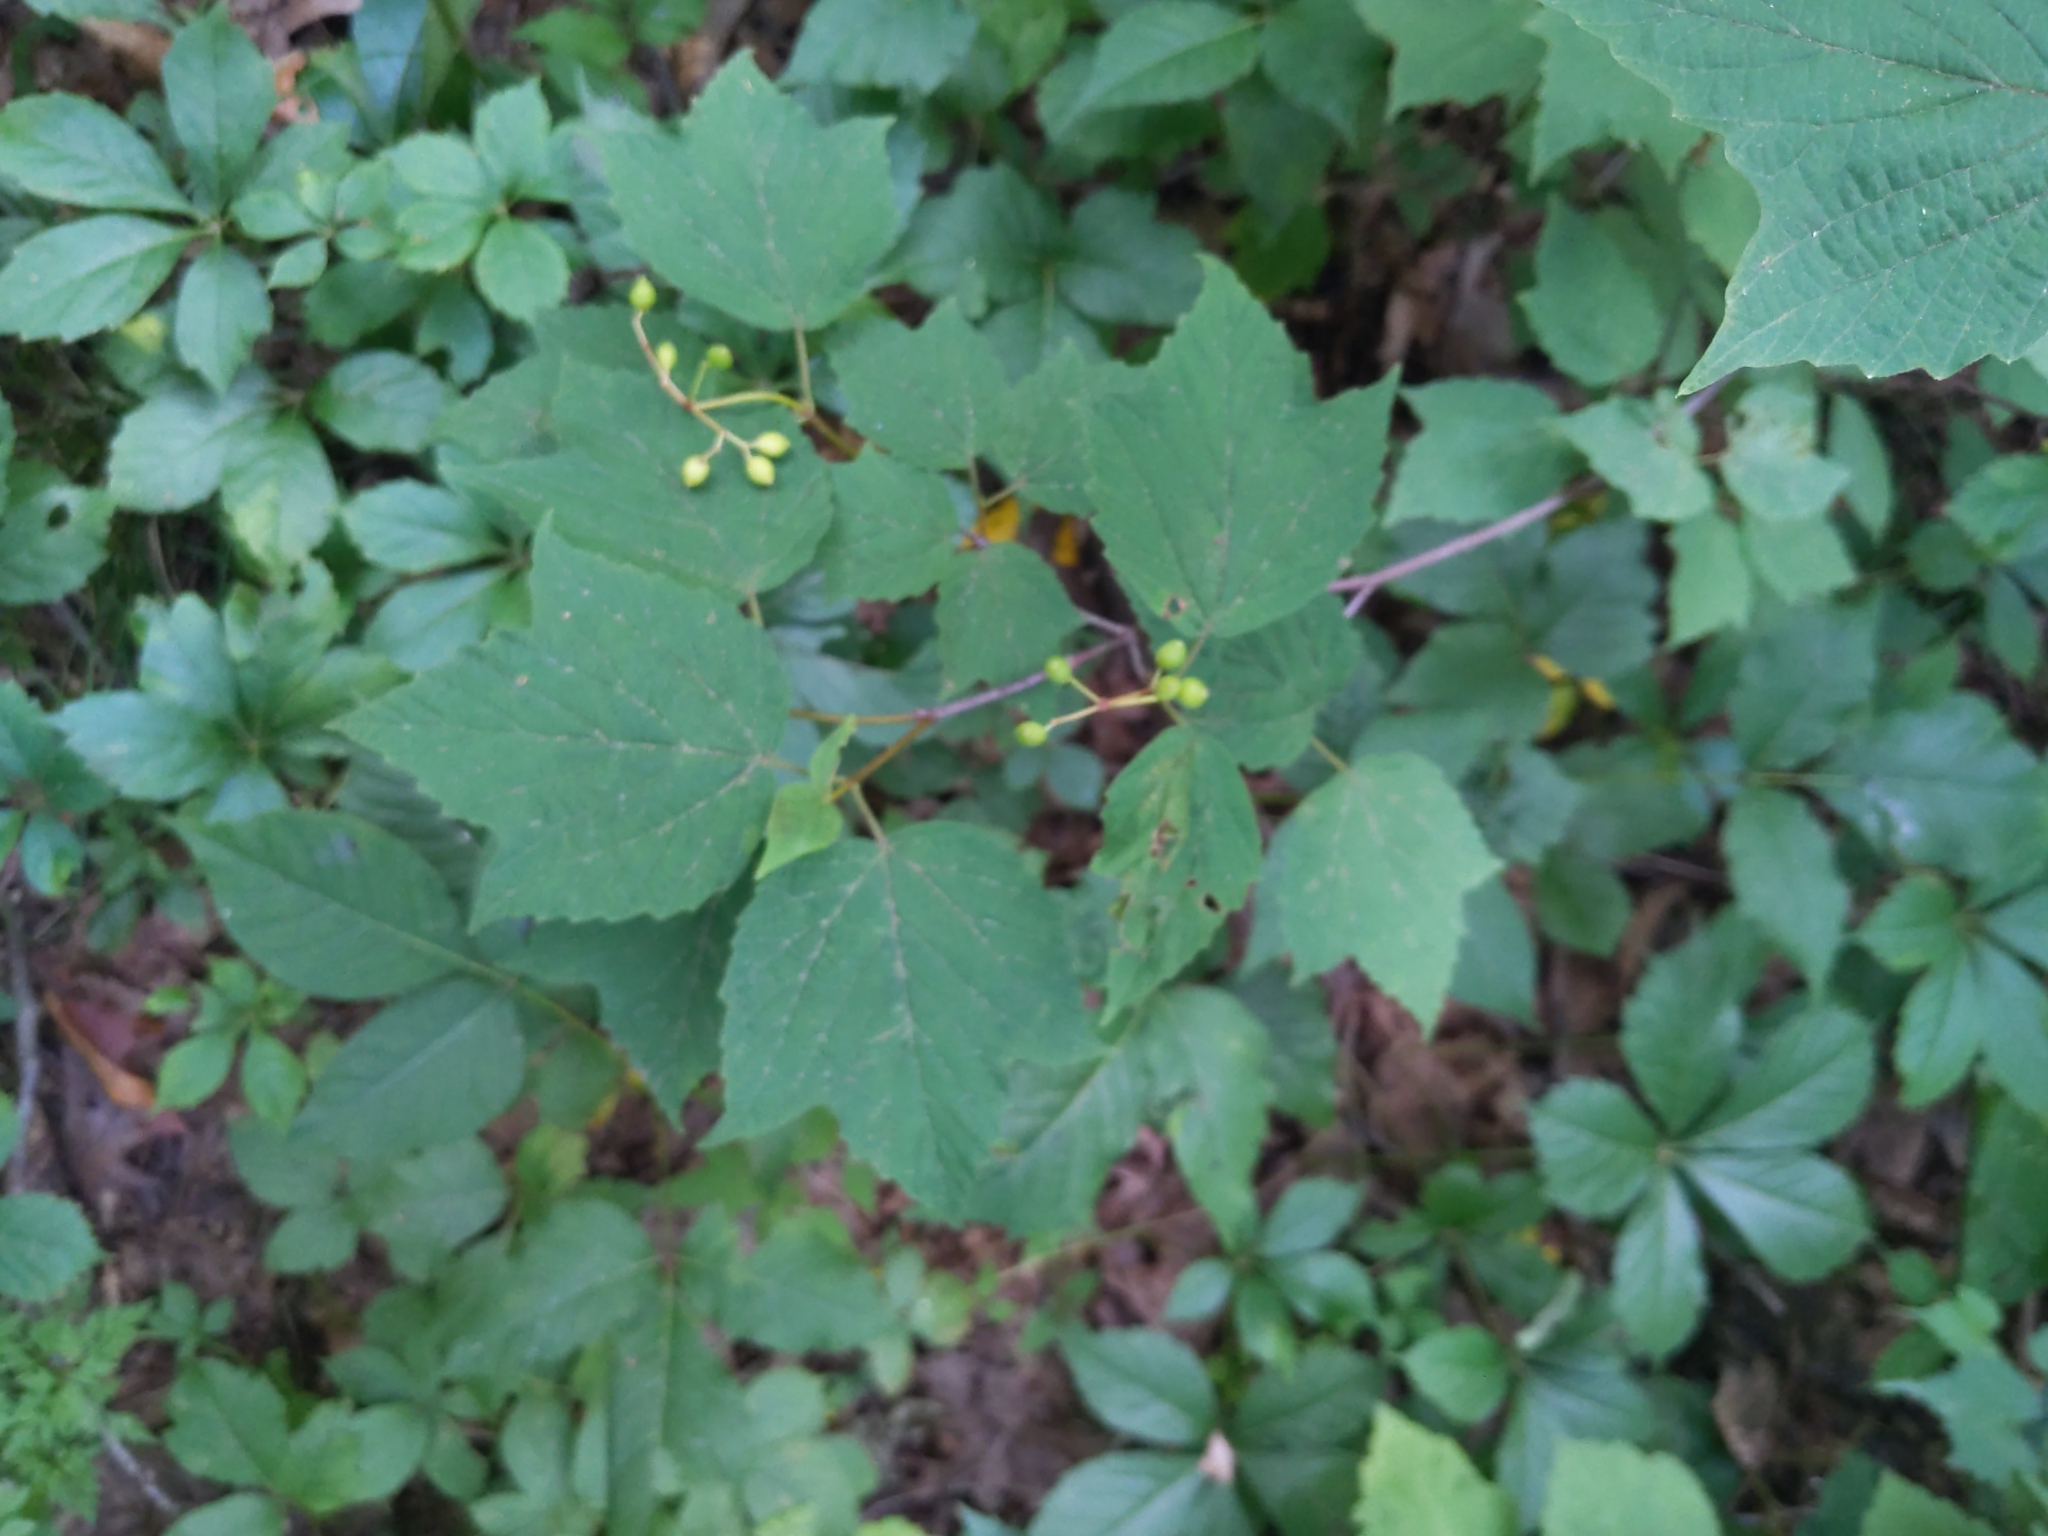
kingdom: Plantae
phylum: Tracheophyta
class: Magnoliopsida
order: Dipsacales
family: Viburnaceae
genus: Viburnum
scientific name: Viburnum acerifolium
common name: Dockmackie
